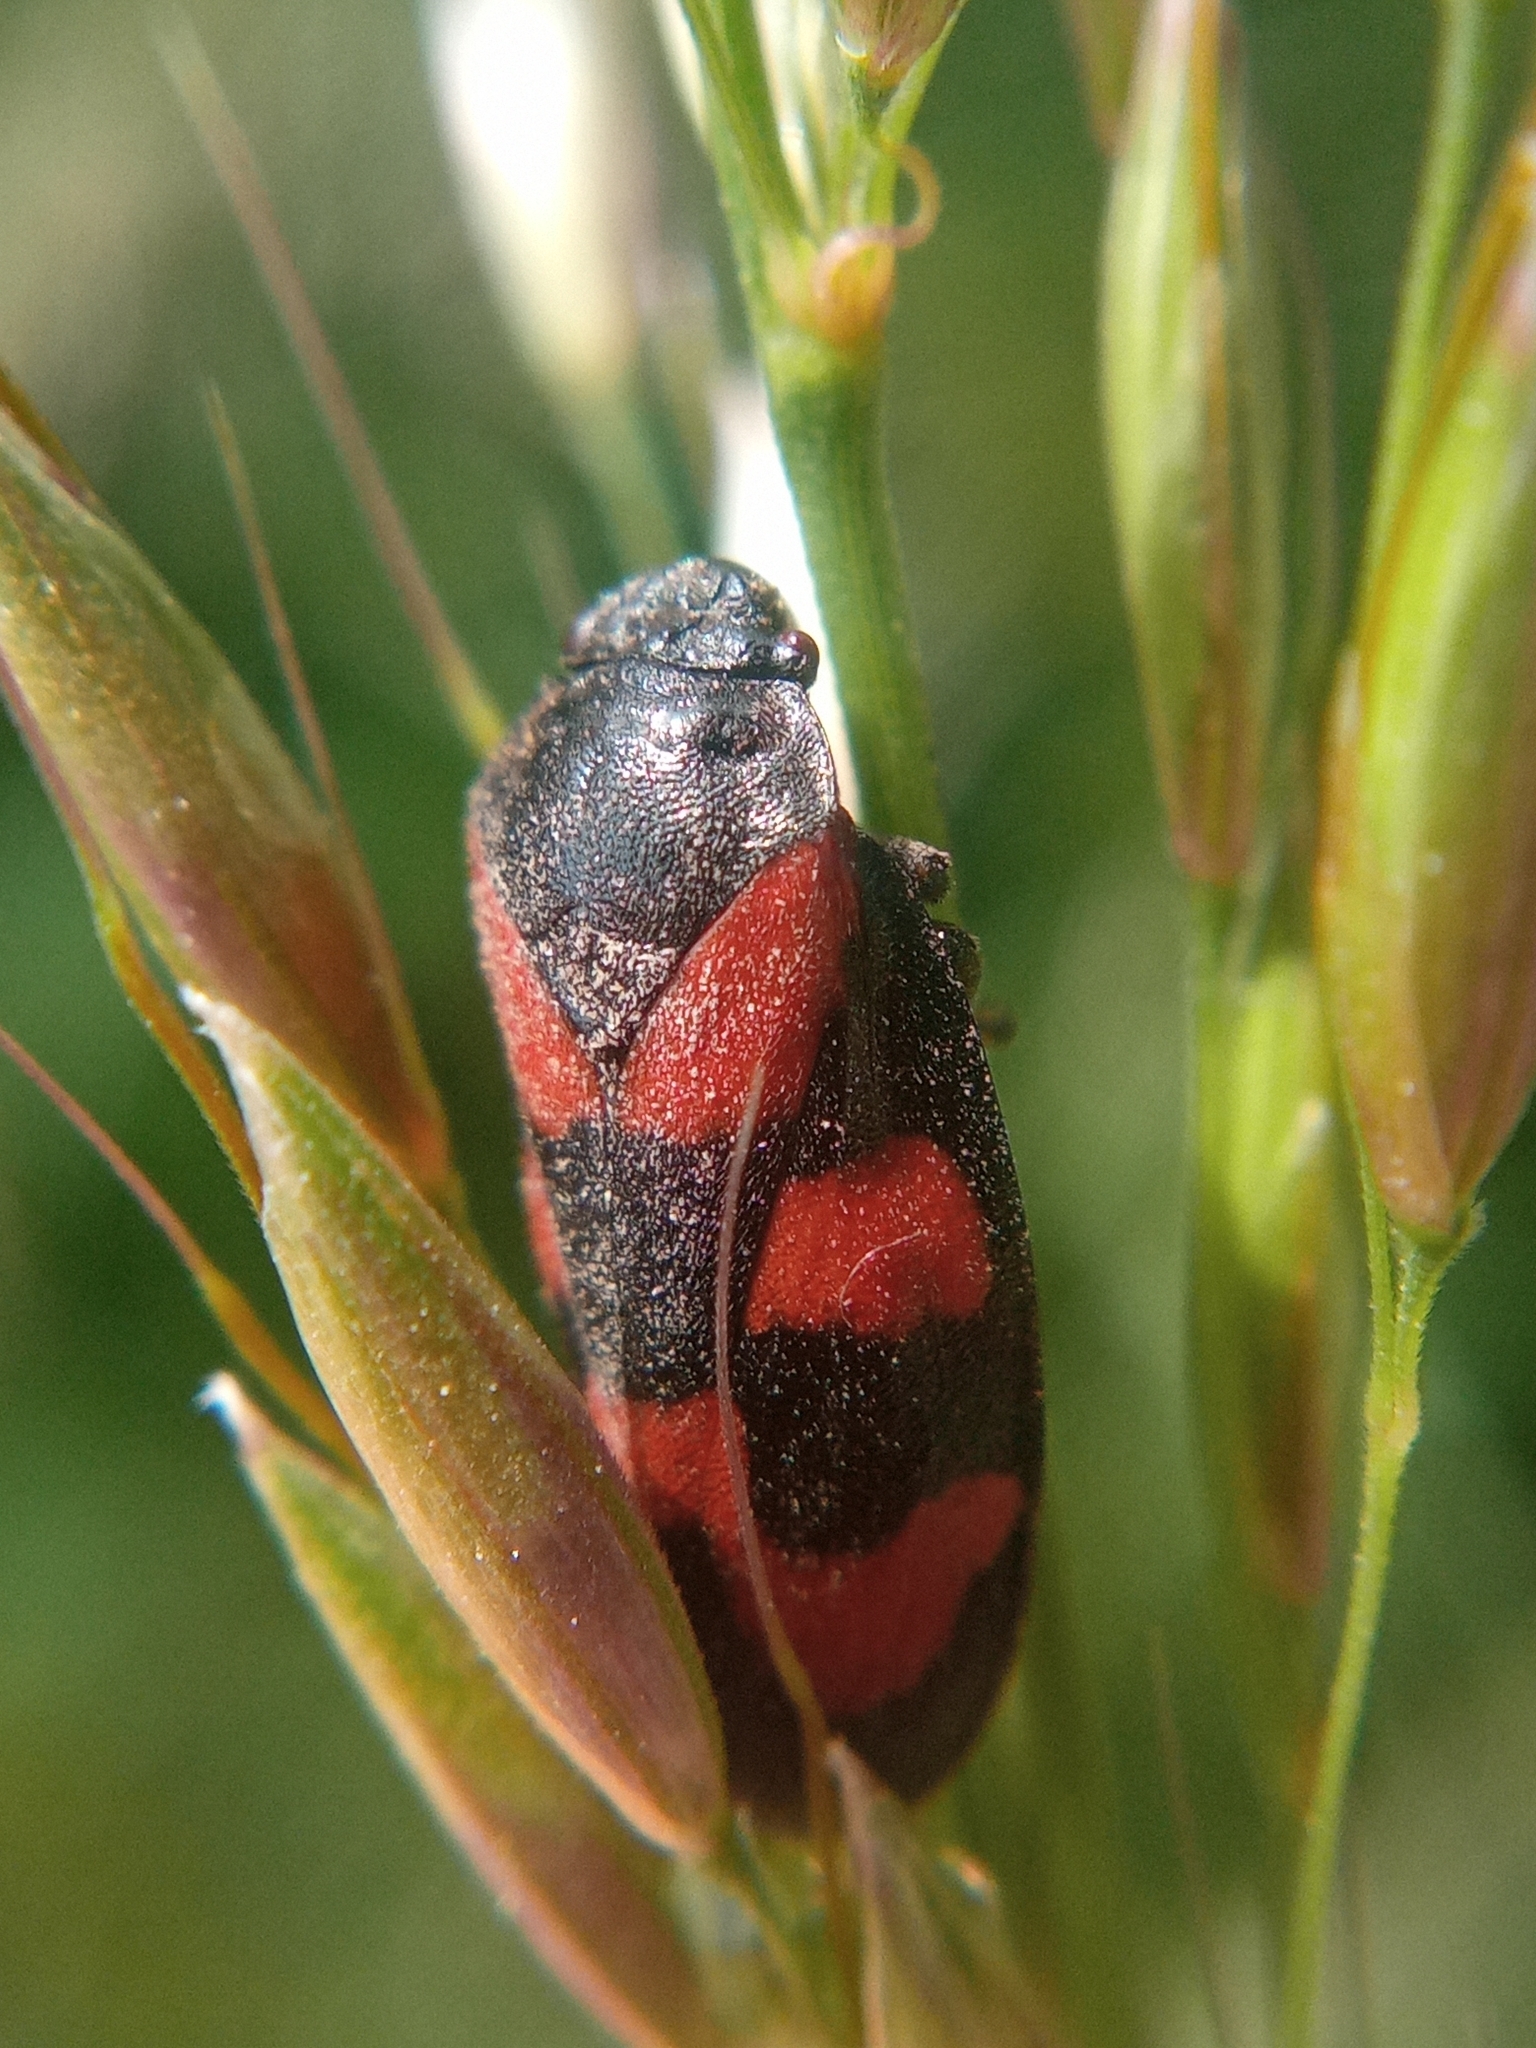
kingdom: Animalia
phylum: Arthropoda
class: Insecta
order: Hemiptera
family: Cercopidae
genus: Cercopis
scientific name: Cercopis vulnerata
